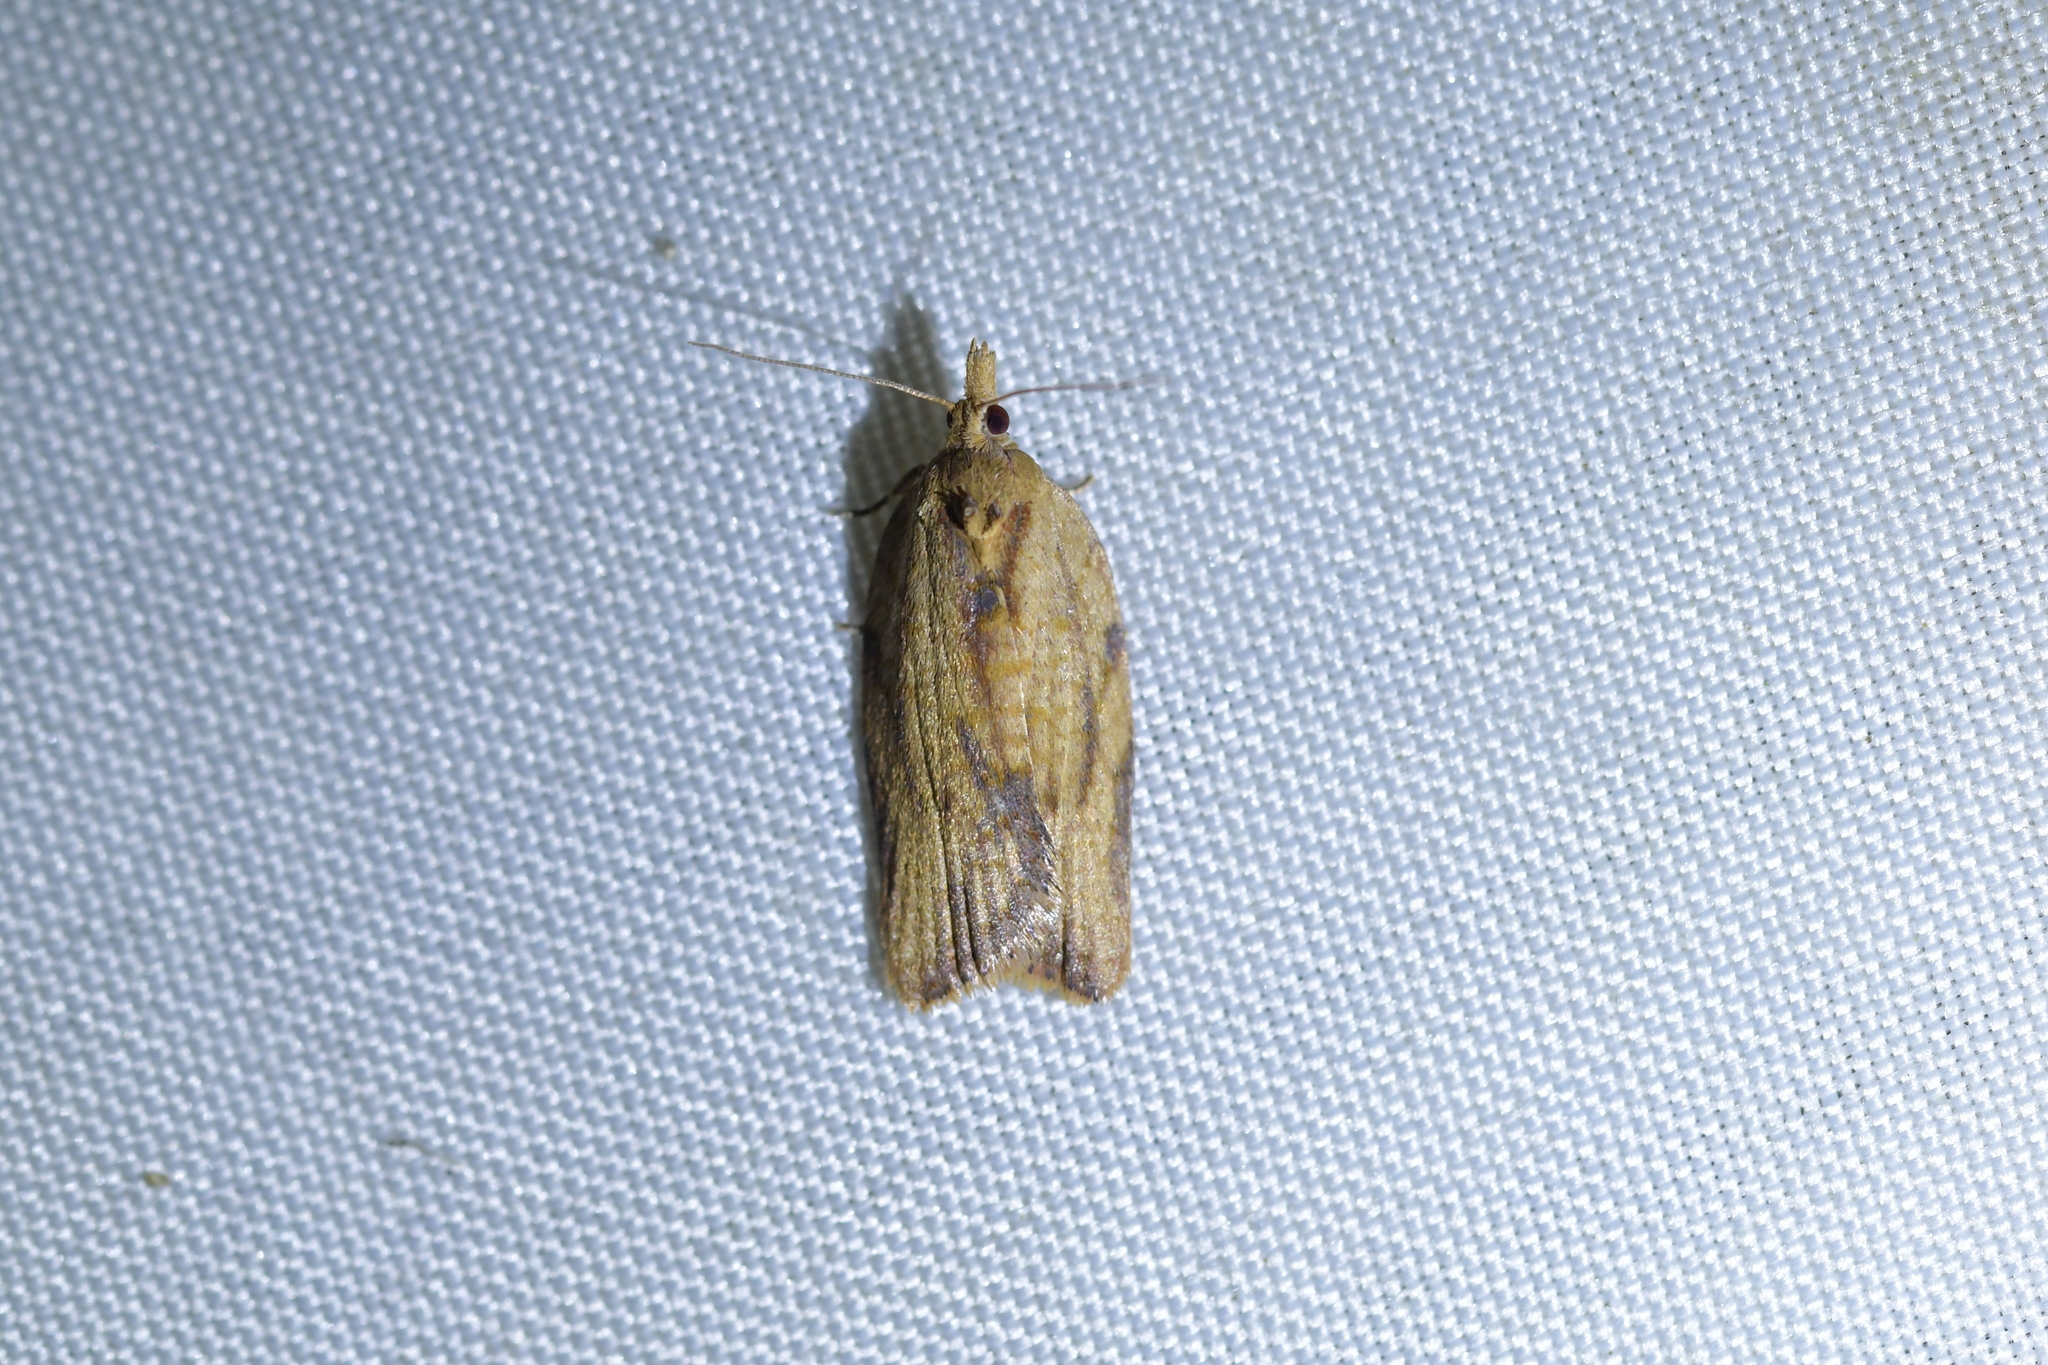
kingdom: Animalia
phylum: Arthropoda
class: Insecta
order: Lepidoptera
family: Tortricidae
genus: Epiphyas
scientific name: Epiphyas postvittana
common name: Light brown apple moth
